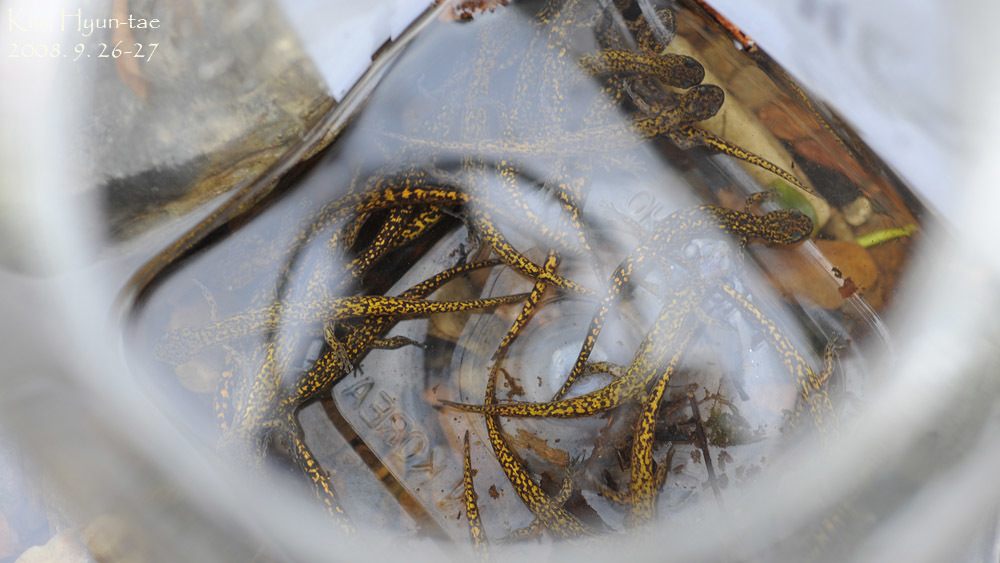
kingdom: Animalia
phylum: Chordata
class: Amphibia
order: Caudata
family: Hynobiidae
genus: Onychodactylus
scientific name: Onychodactylus koreanus
